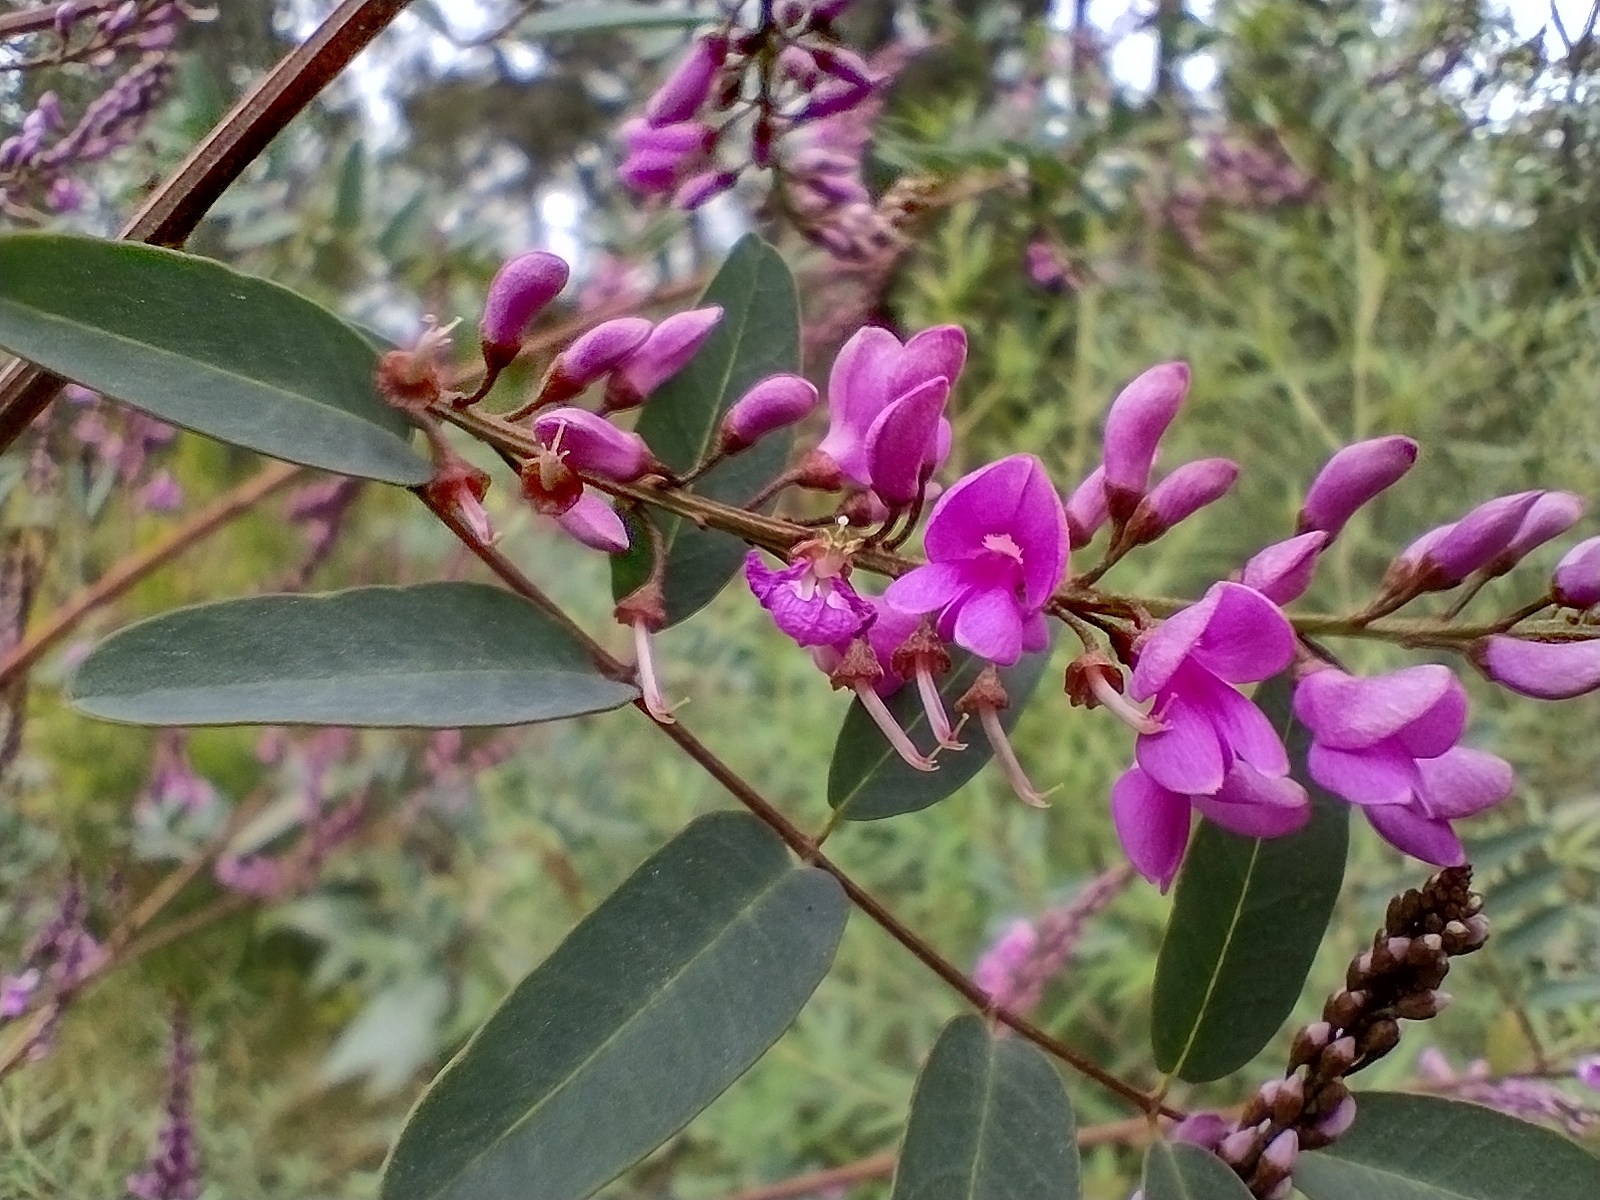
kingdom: Plantae
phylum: Tracheophyta
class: Magnoliopsida
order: Fabales
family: Fabaceae
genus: Indigofera
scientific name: Indigofera australis
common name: Australian indigo
